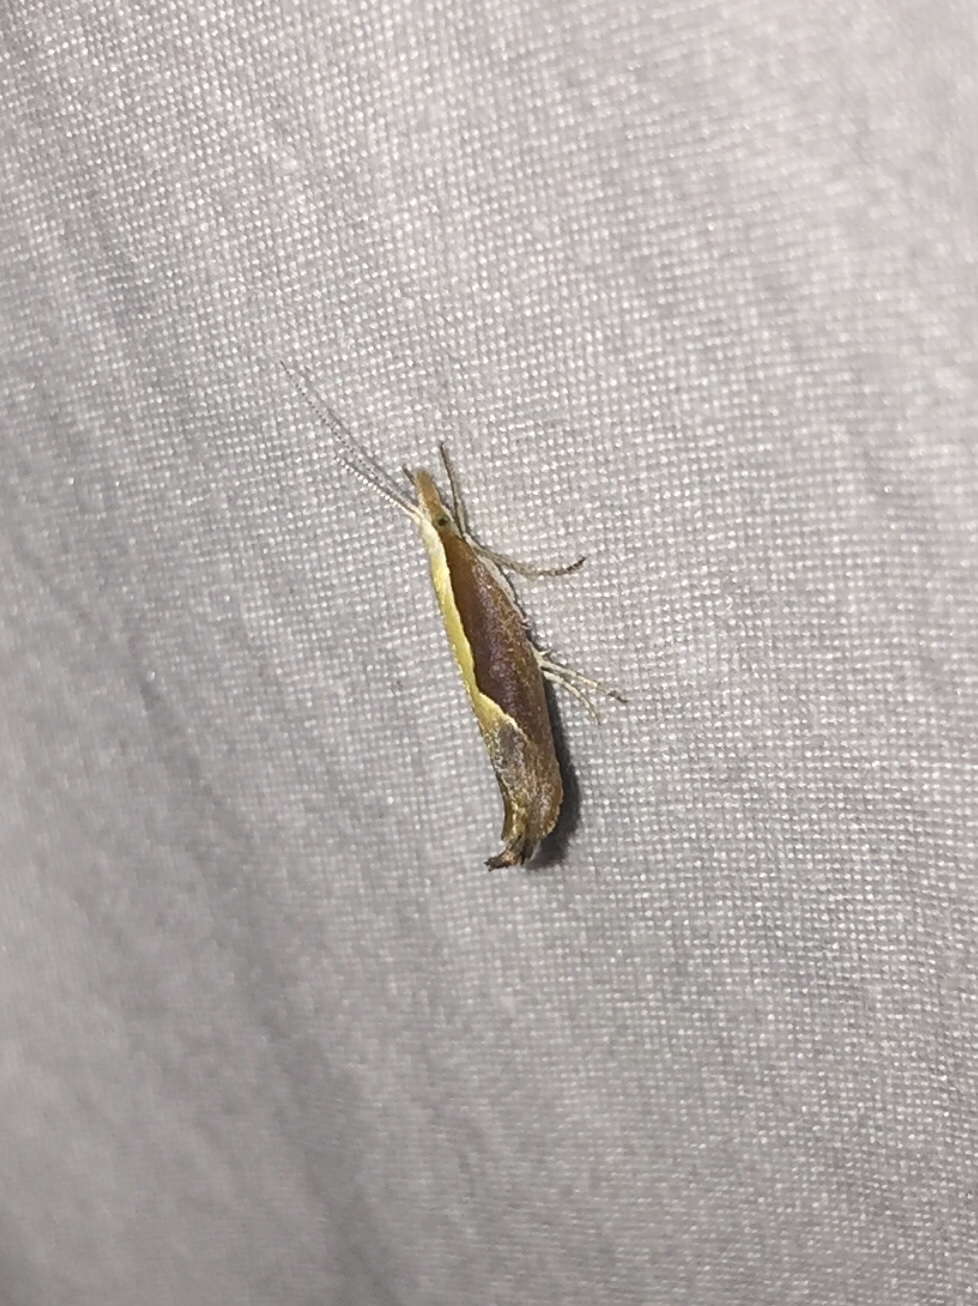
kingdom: Animalia
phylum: Arthropoda
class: Insecta
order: Lepidoptera
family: Ypsolophidae
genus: Ypsolopha
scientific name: Ypsolopha dentella
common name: Honeysuckle moth
